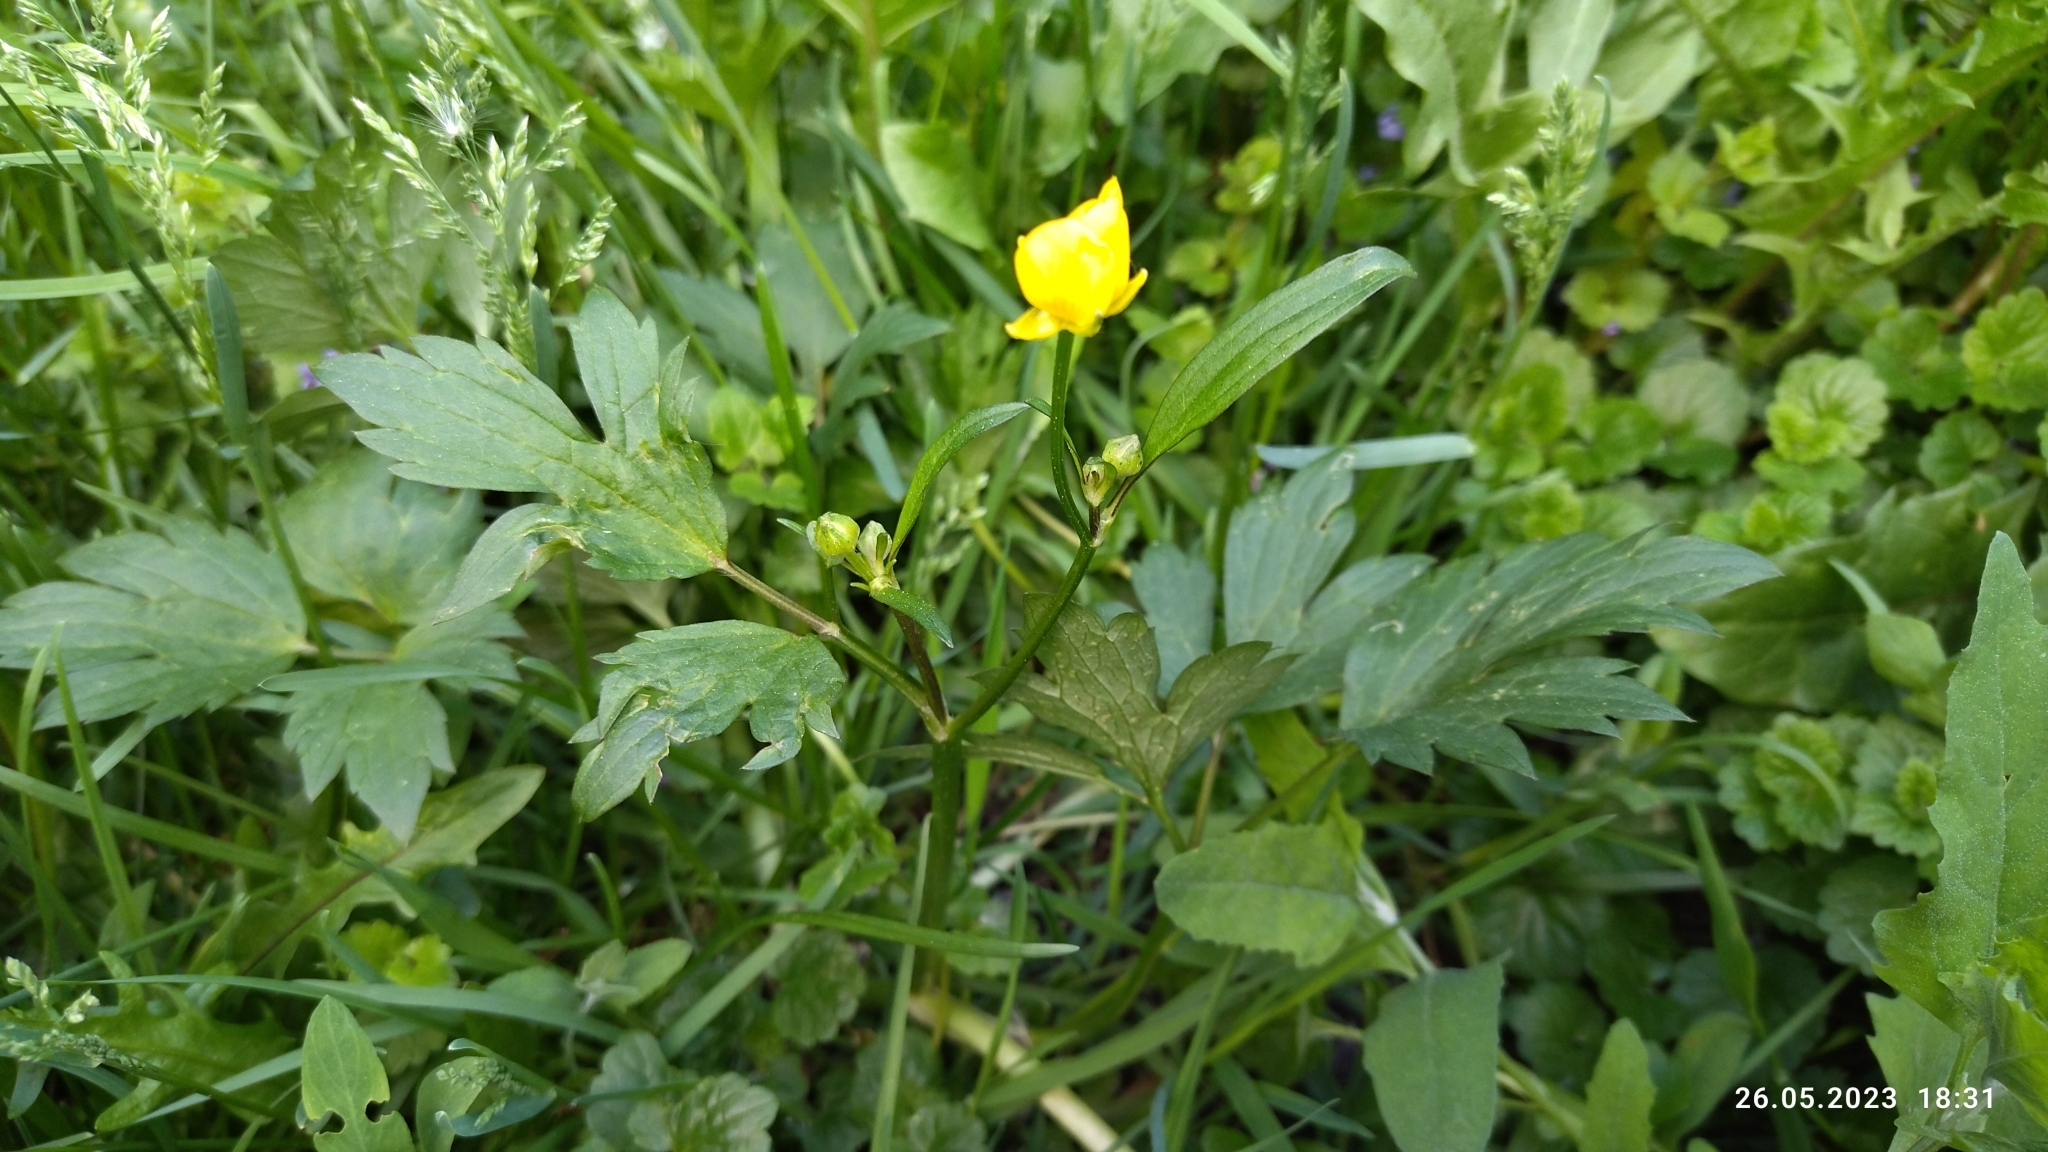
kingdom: Plantae
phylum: Tracheophyta
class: Magnoliopsida
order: Ranunculales
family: Ranunculaceae
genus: Ranunculus
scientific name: Ranunculus repens
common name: Creeping buttercup
